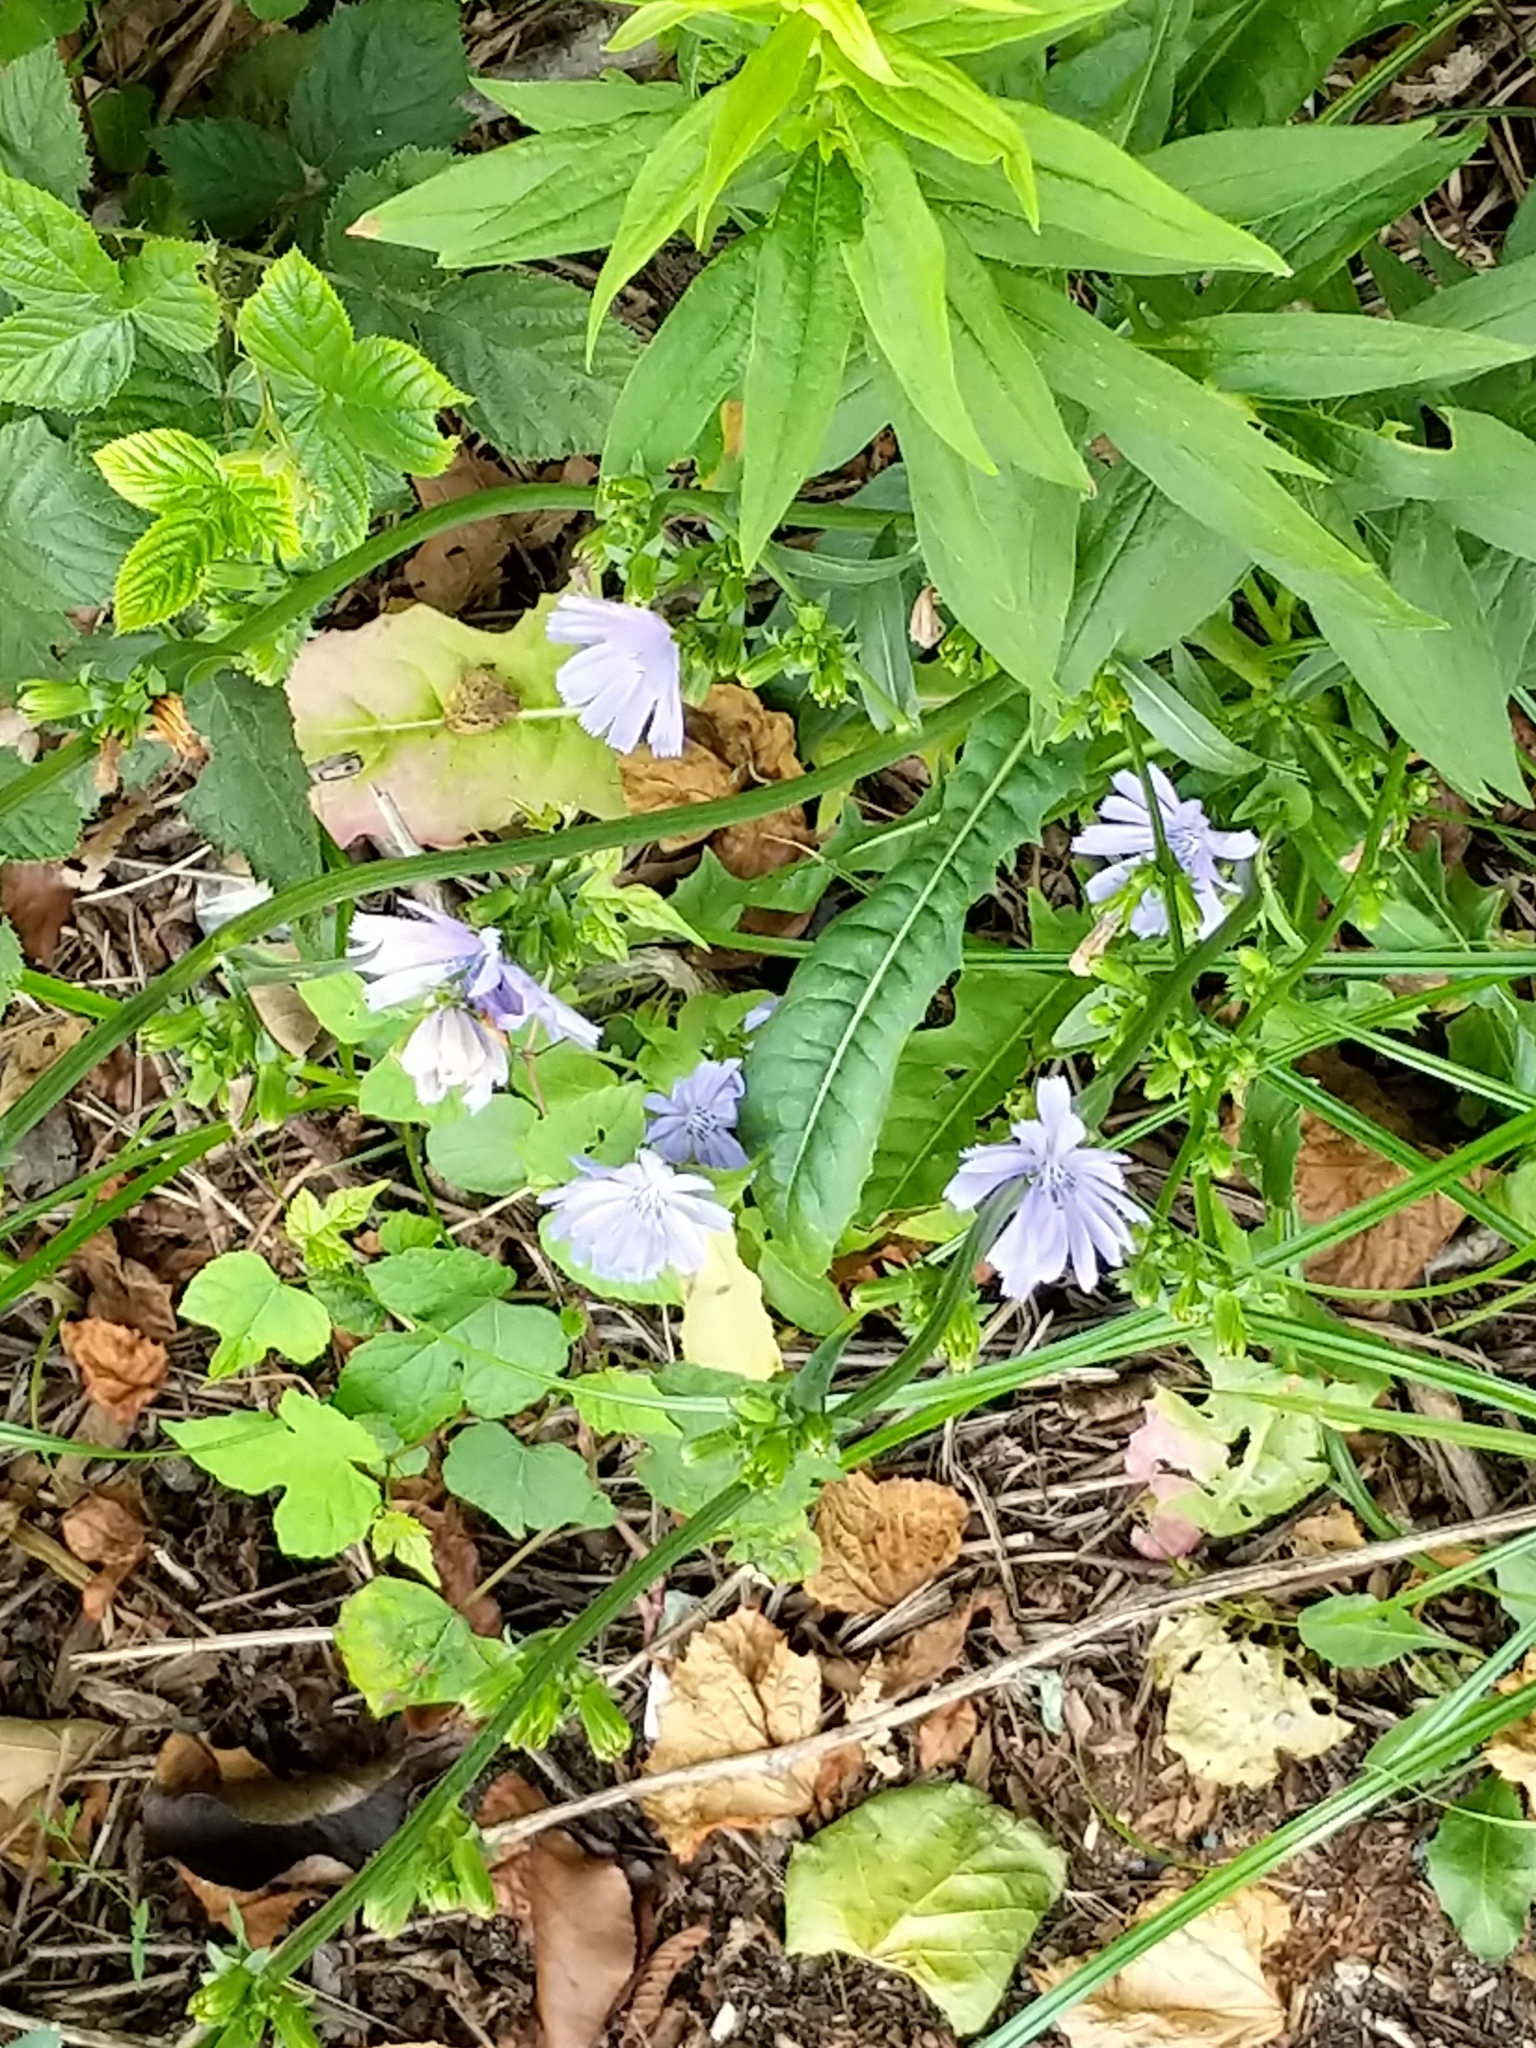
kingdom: Plantae
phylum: Tracheophyta
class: Magnoliopsida
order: Asterales
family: Asteraceae
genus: Cichorium
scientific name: Cichorium intybus
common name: Chicory
